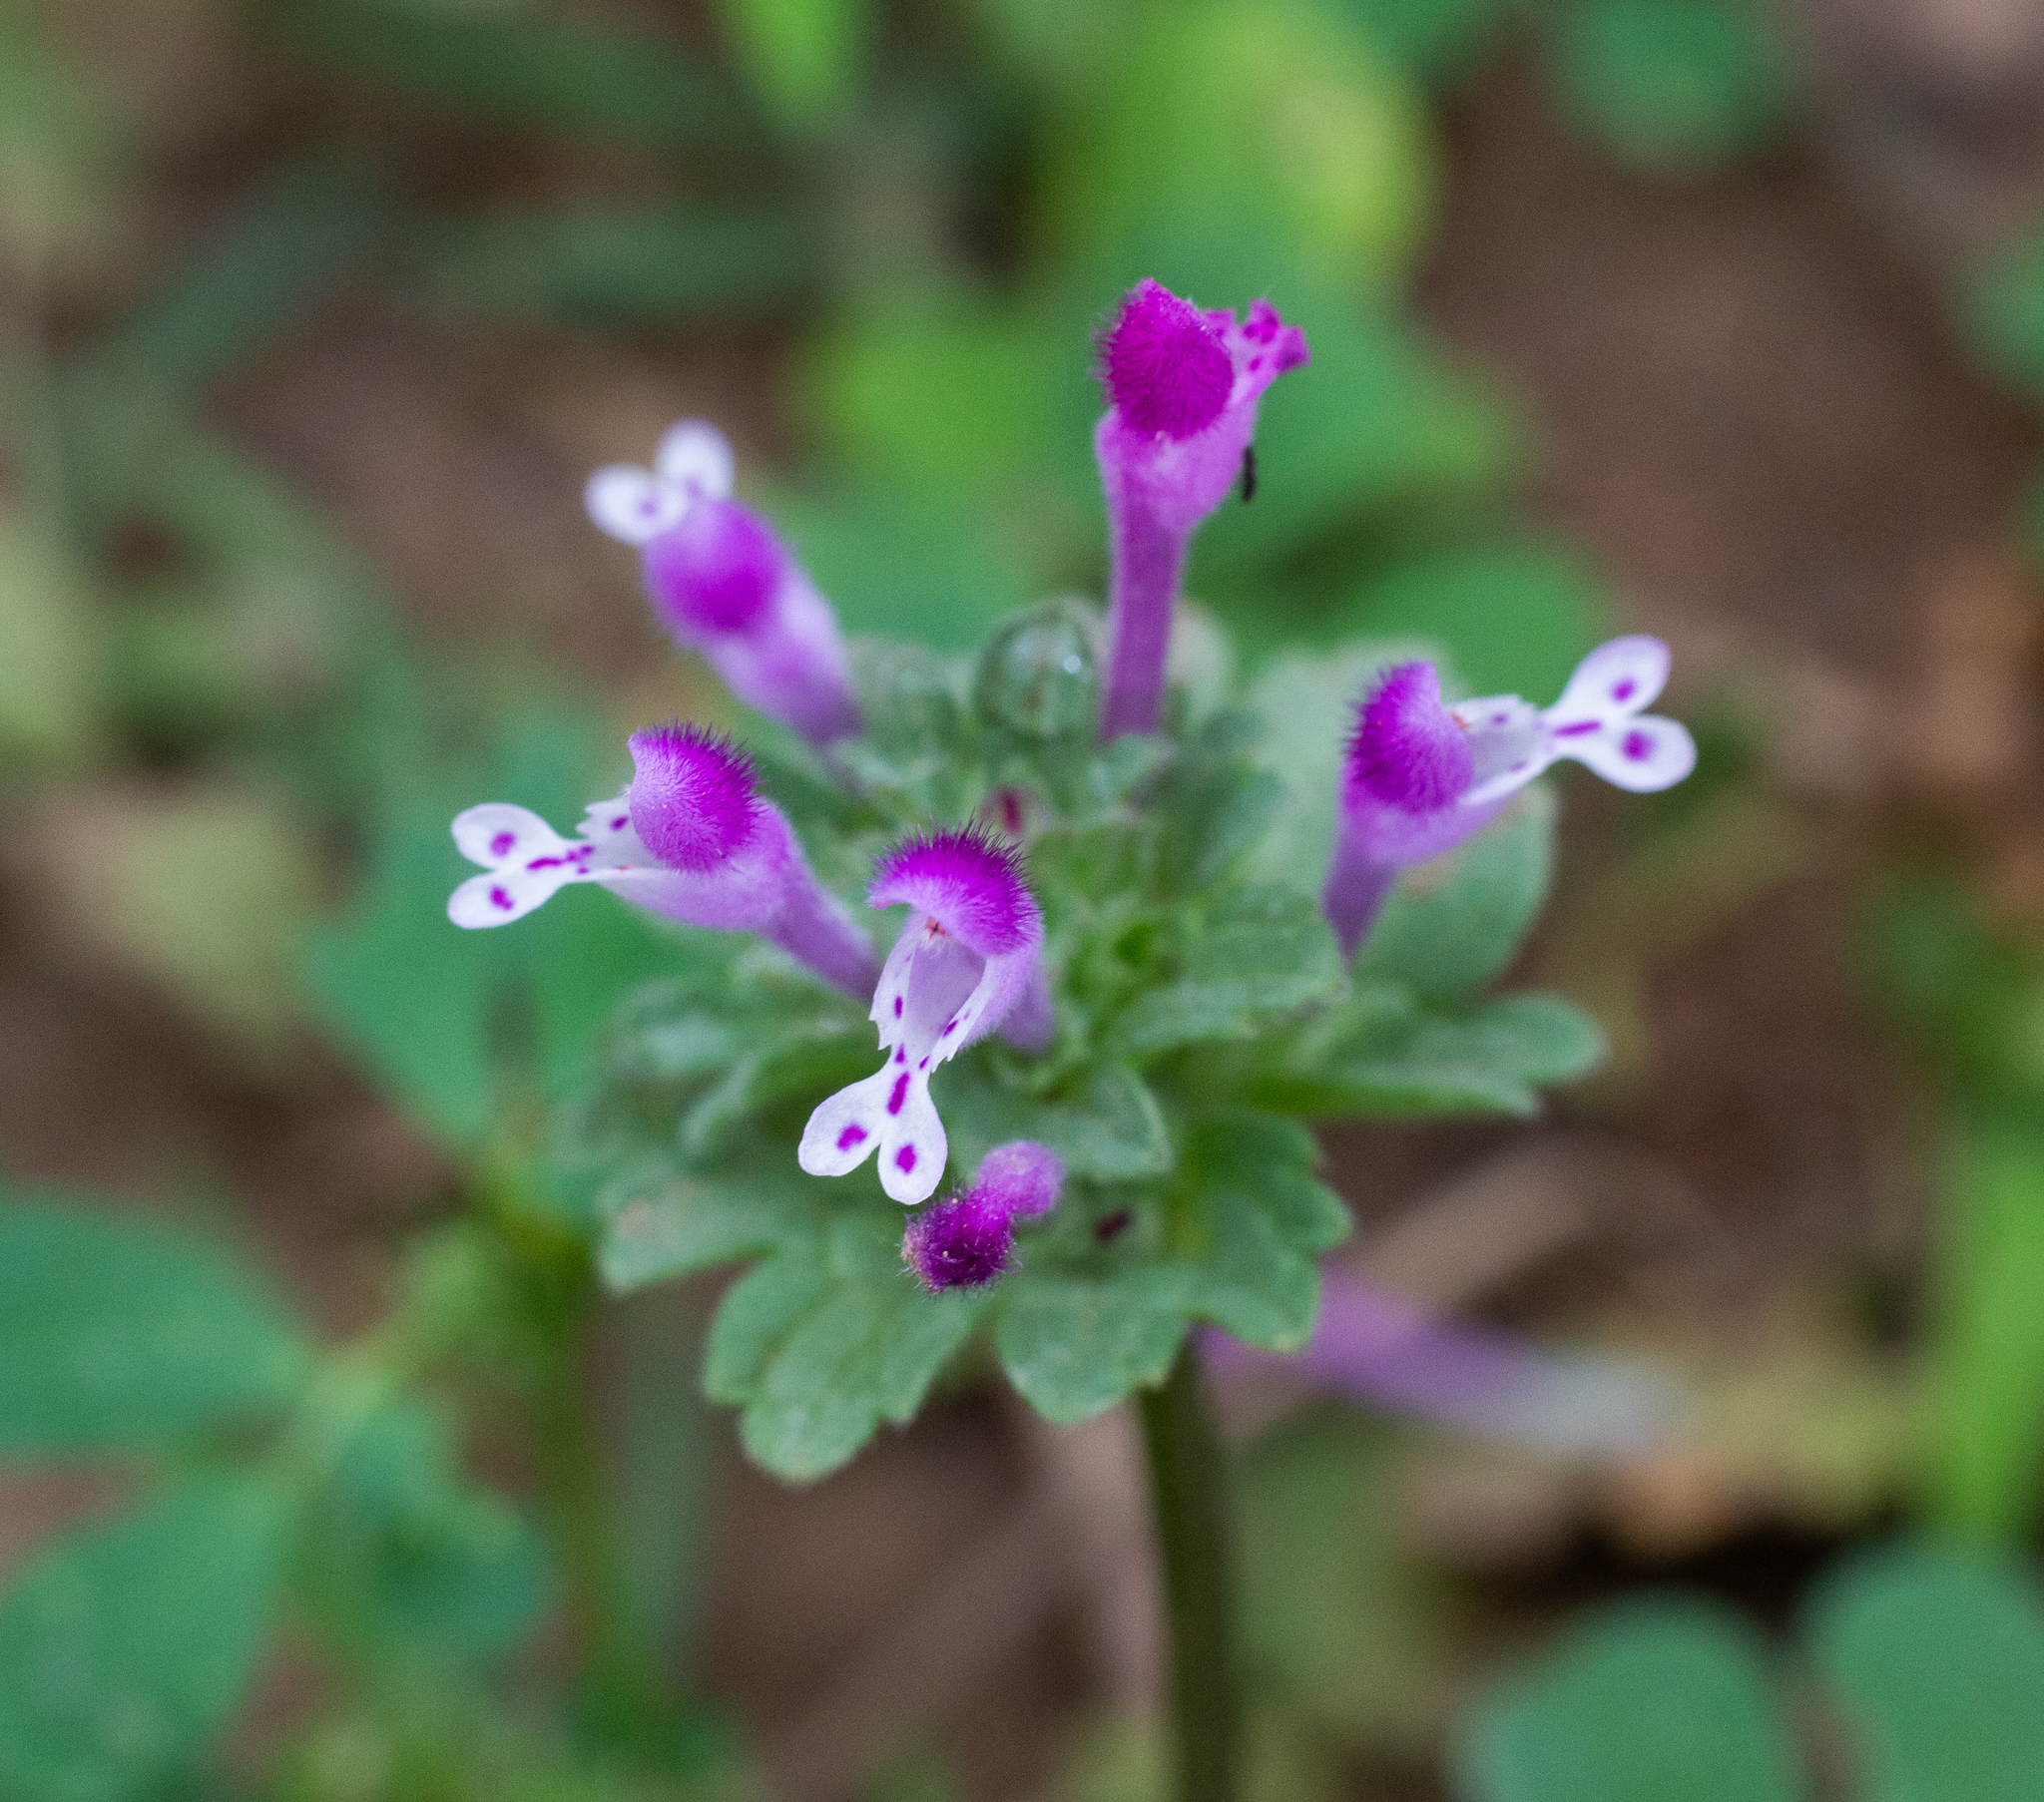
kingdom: Plantae
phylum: Tracheophyta
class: Magnoliopsida
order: Lamiales
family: Lamiaceae
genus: Lamium
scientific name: Lamium amplexicaule
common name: Henbit dead-nettle
